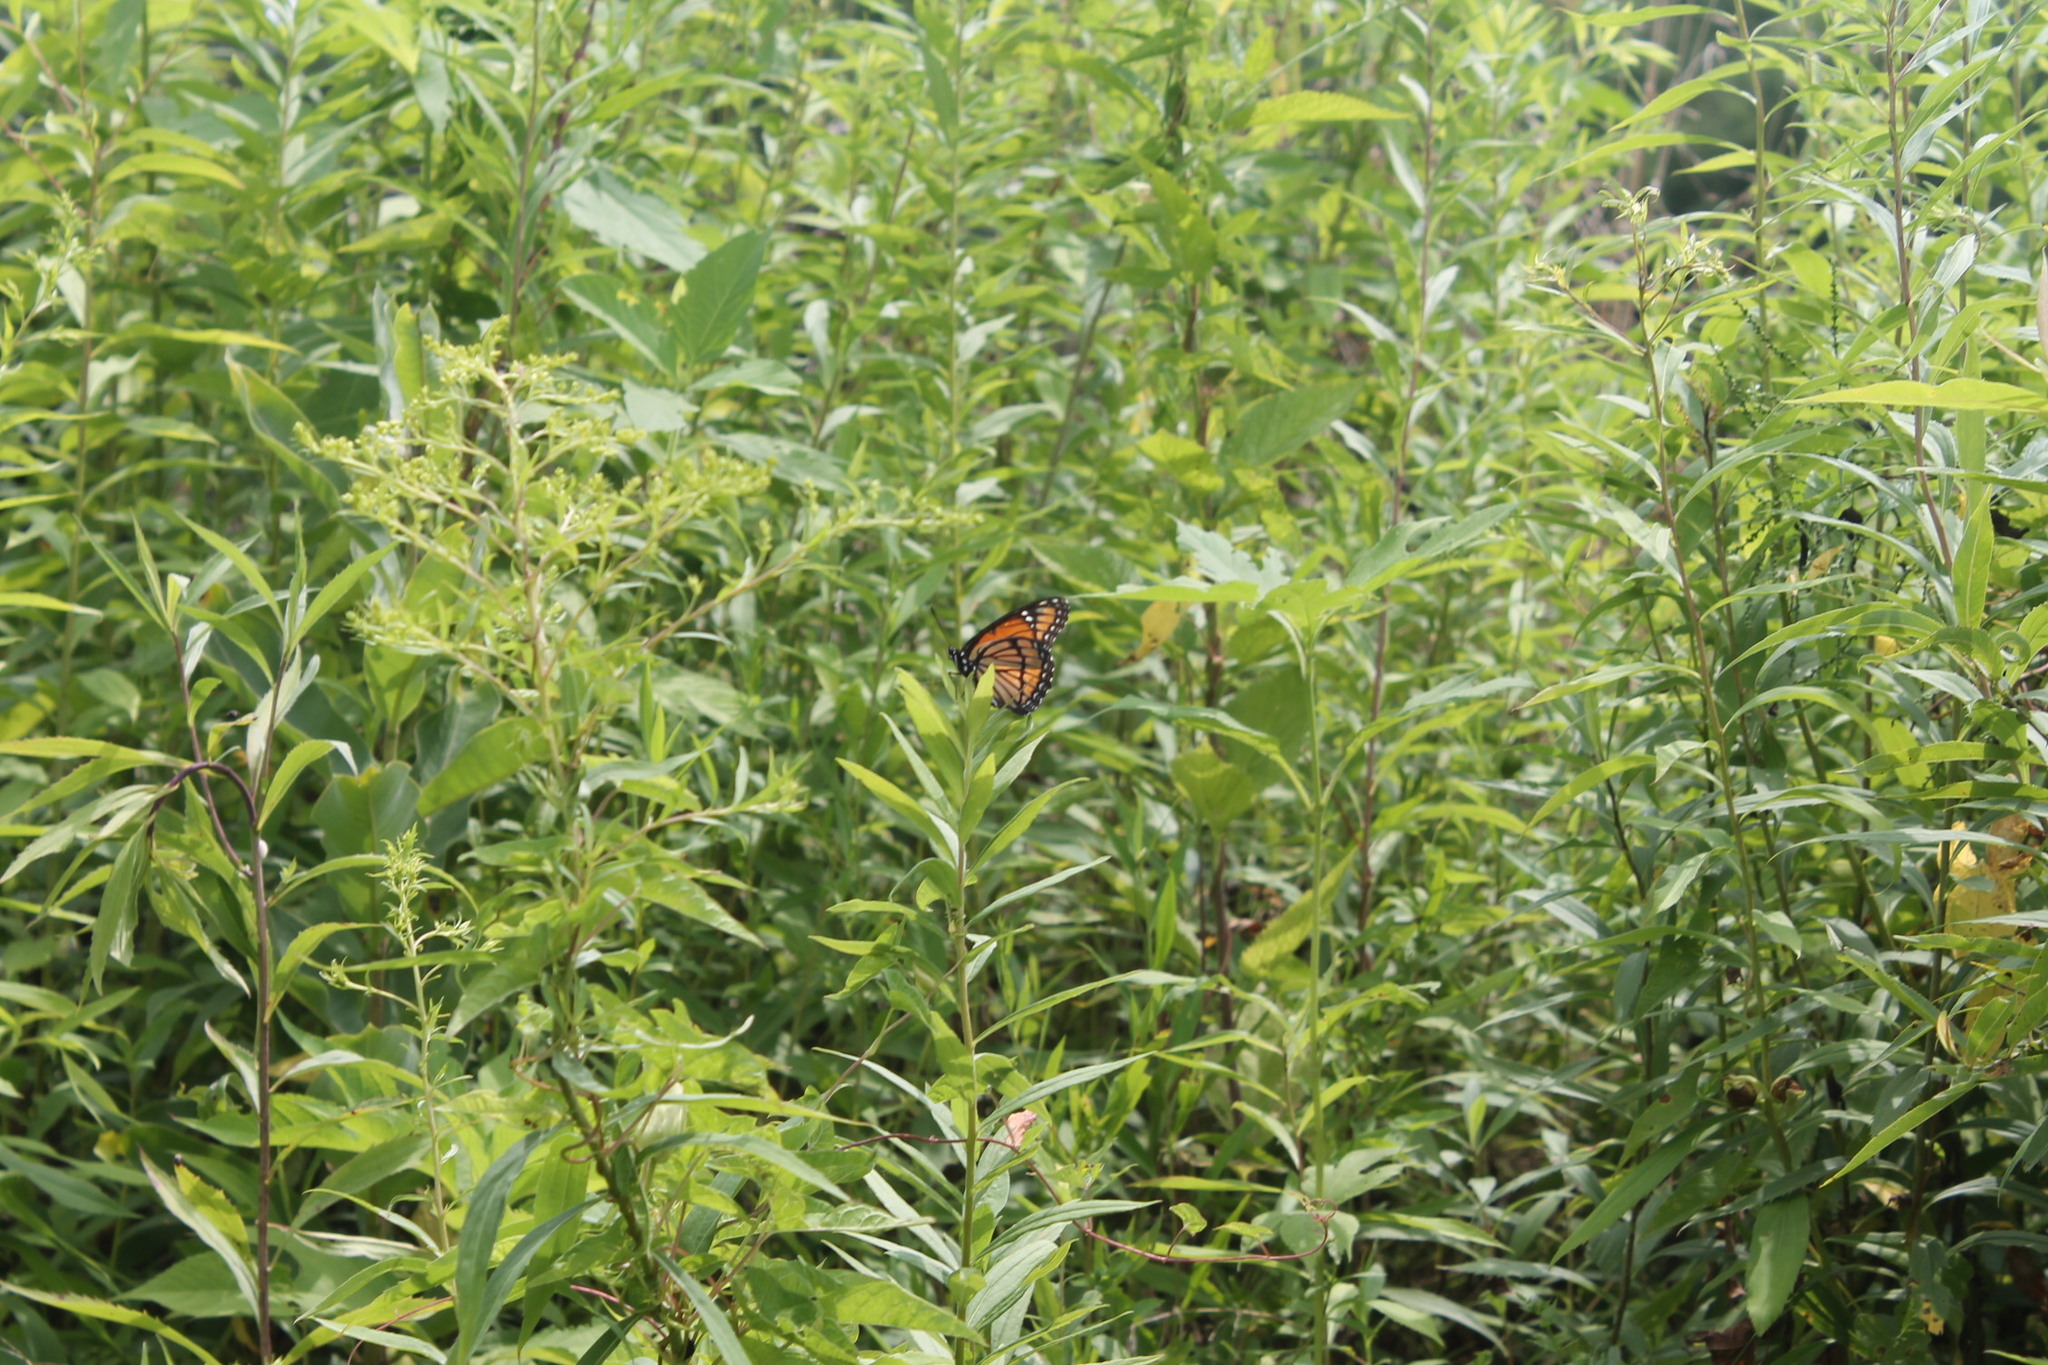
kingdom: Animalia
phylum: Arthropoda
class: Insecta
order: Lepidoptera
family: Nymphalidae
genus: Limenitis
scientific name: Limenitis archippus
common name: Viceroy
